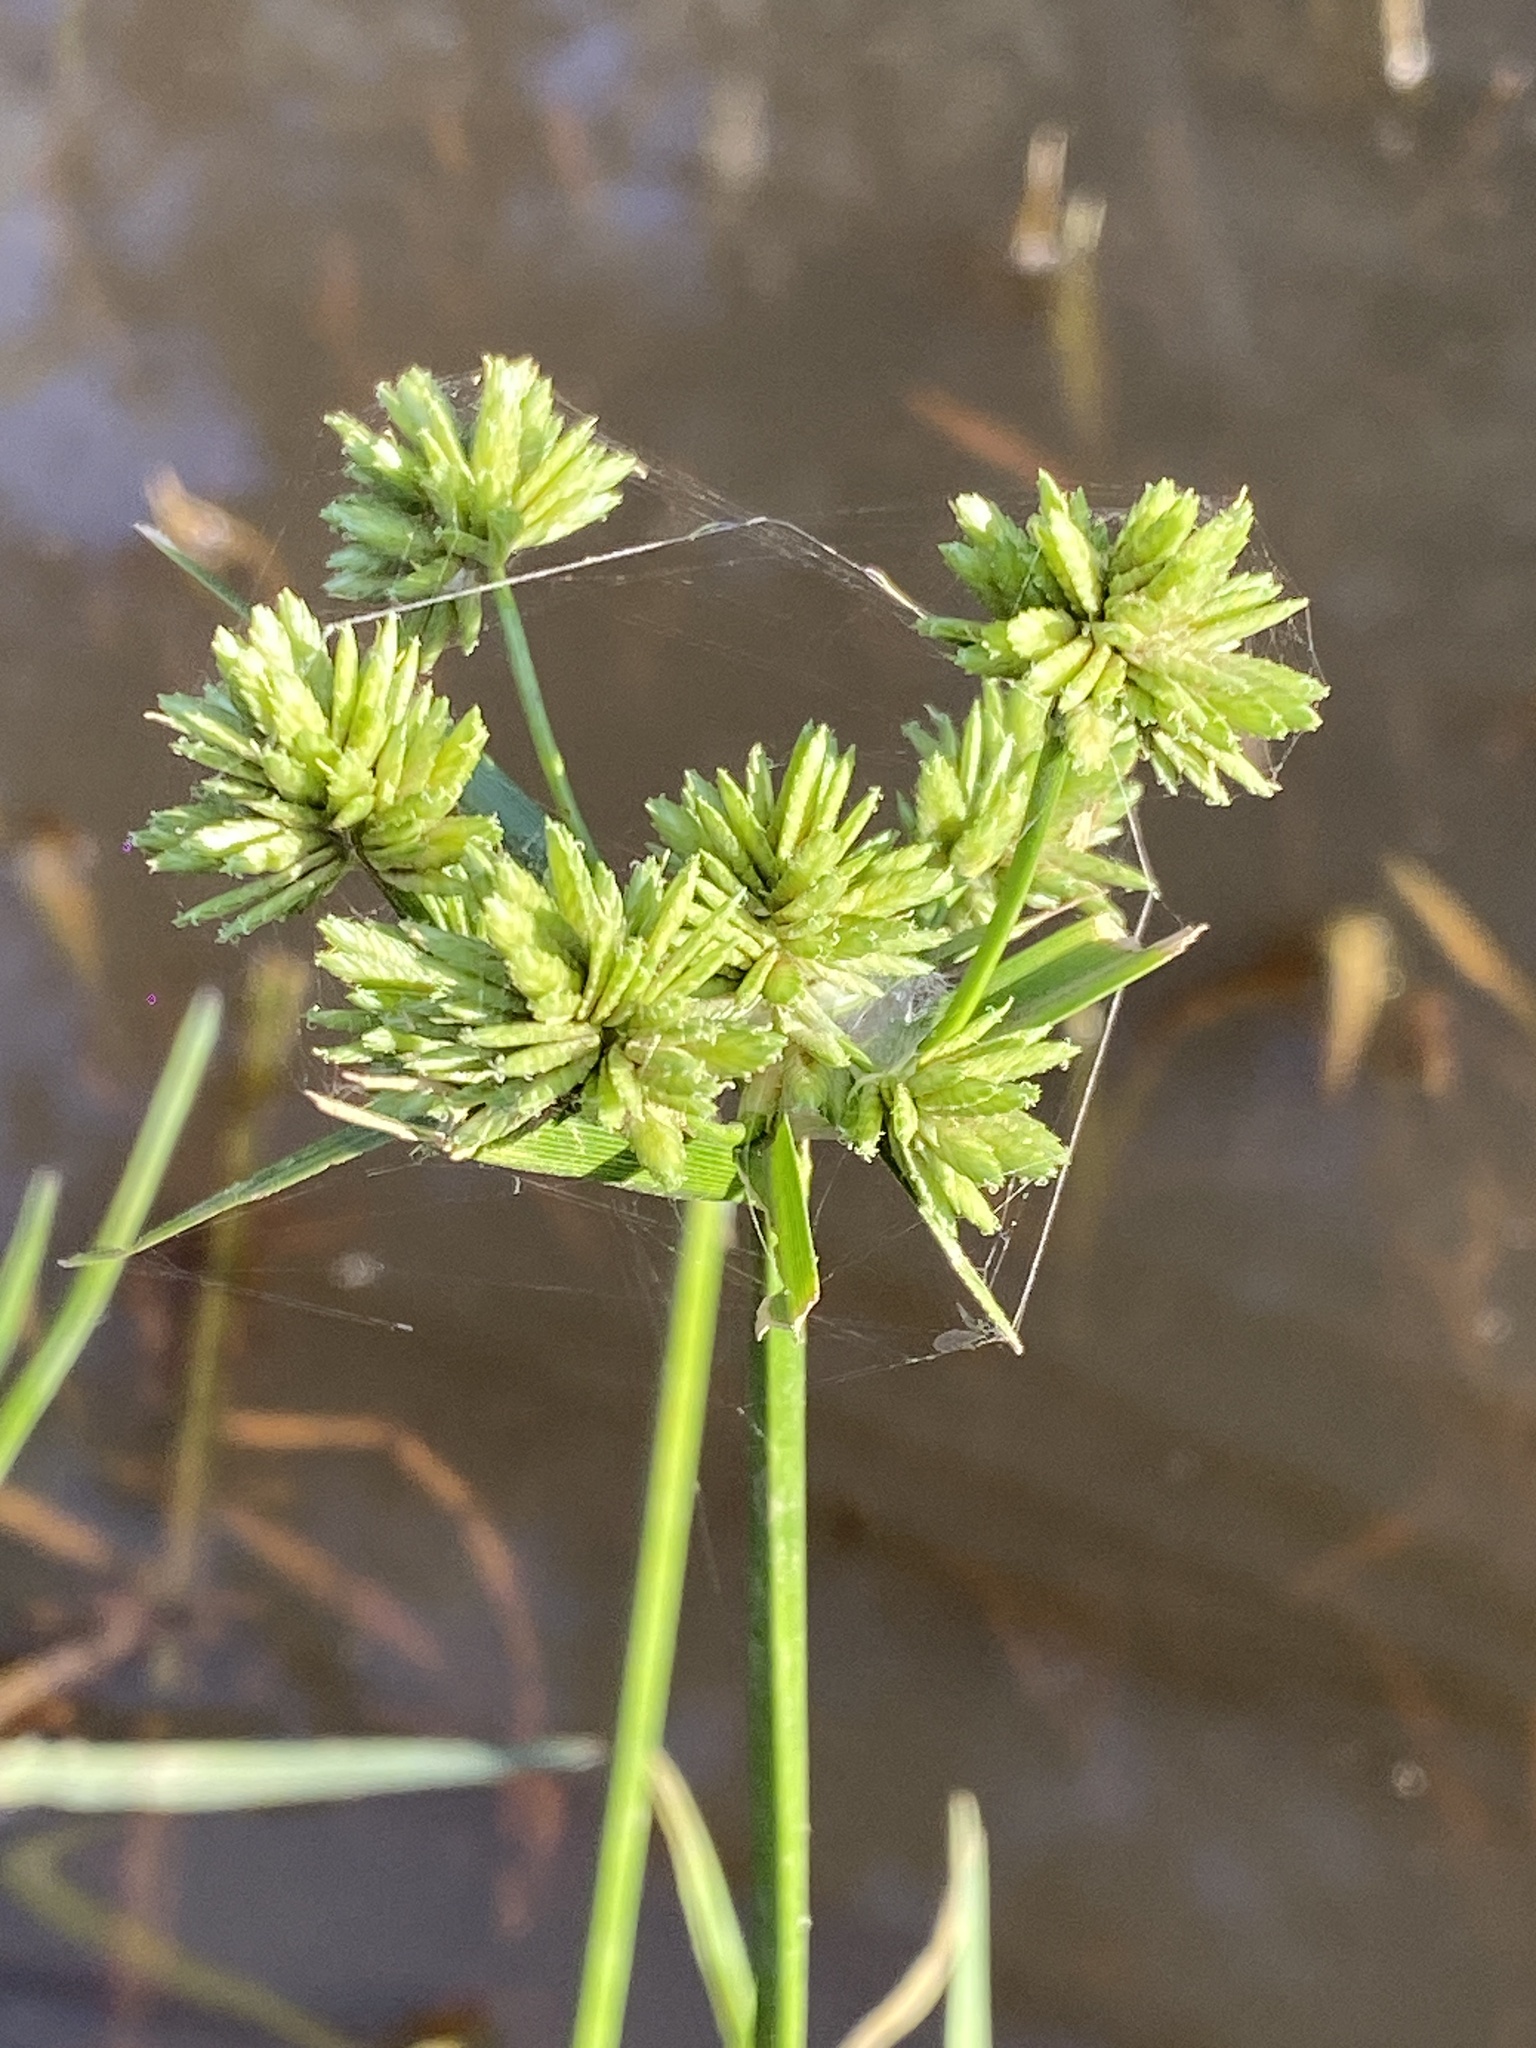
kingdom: Plantae
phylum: Tracheophyta
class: Liliopsida
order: Poales
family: Cyperaceae
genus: Cyperus
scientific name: Cyperus eragrostis
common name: Tall flatsedge
